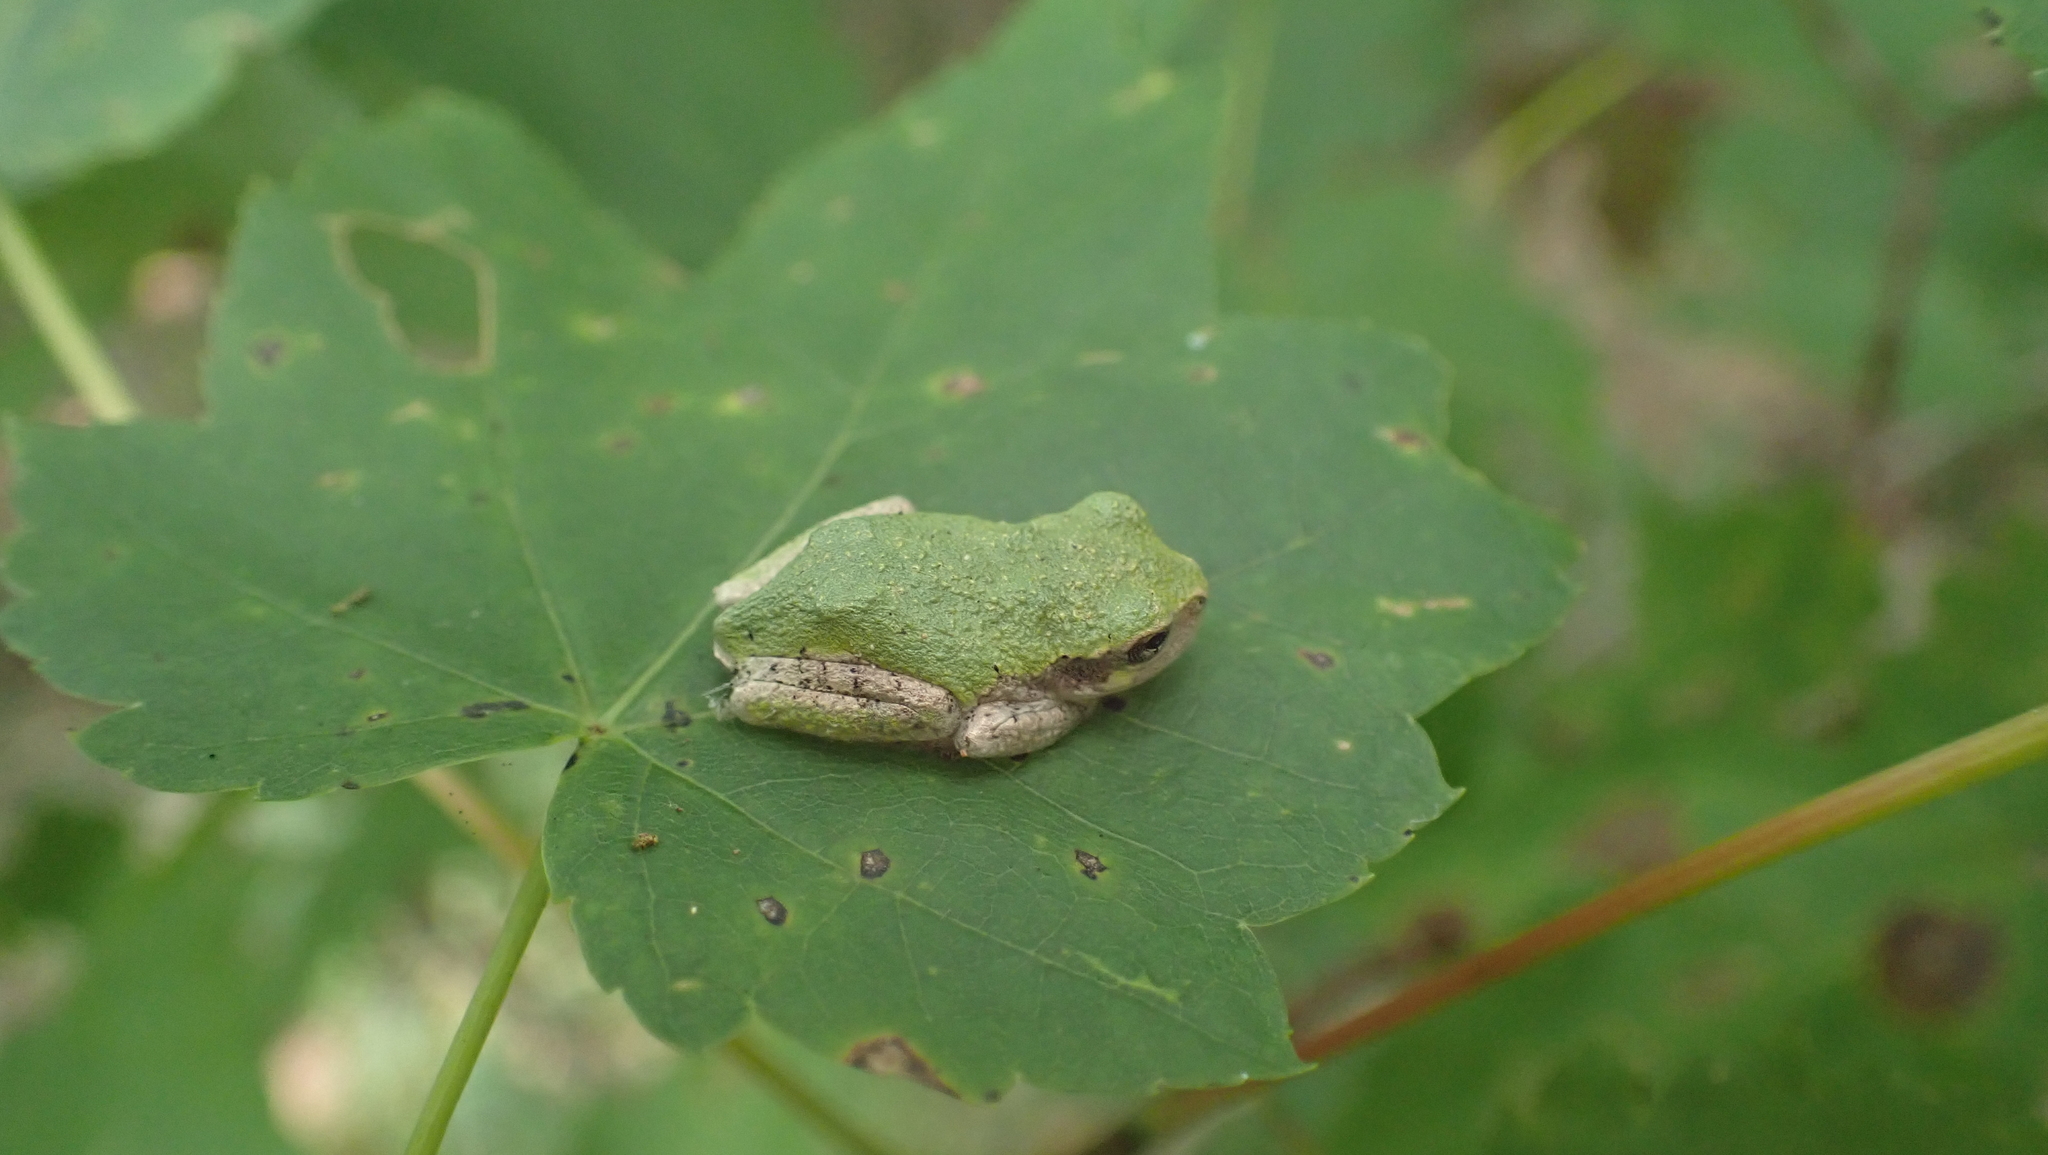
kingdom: Animalia
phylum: Chordata
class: Amphibia
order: Anura
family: Hylidae
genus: Dryophytes
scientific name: Dryophytes chrysoscelis
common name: Cope's gray treefrog
